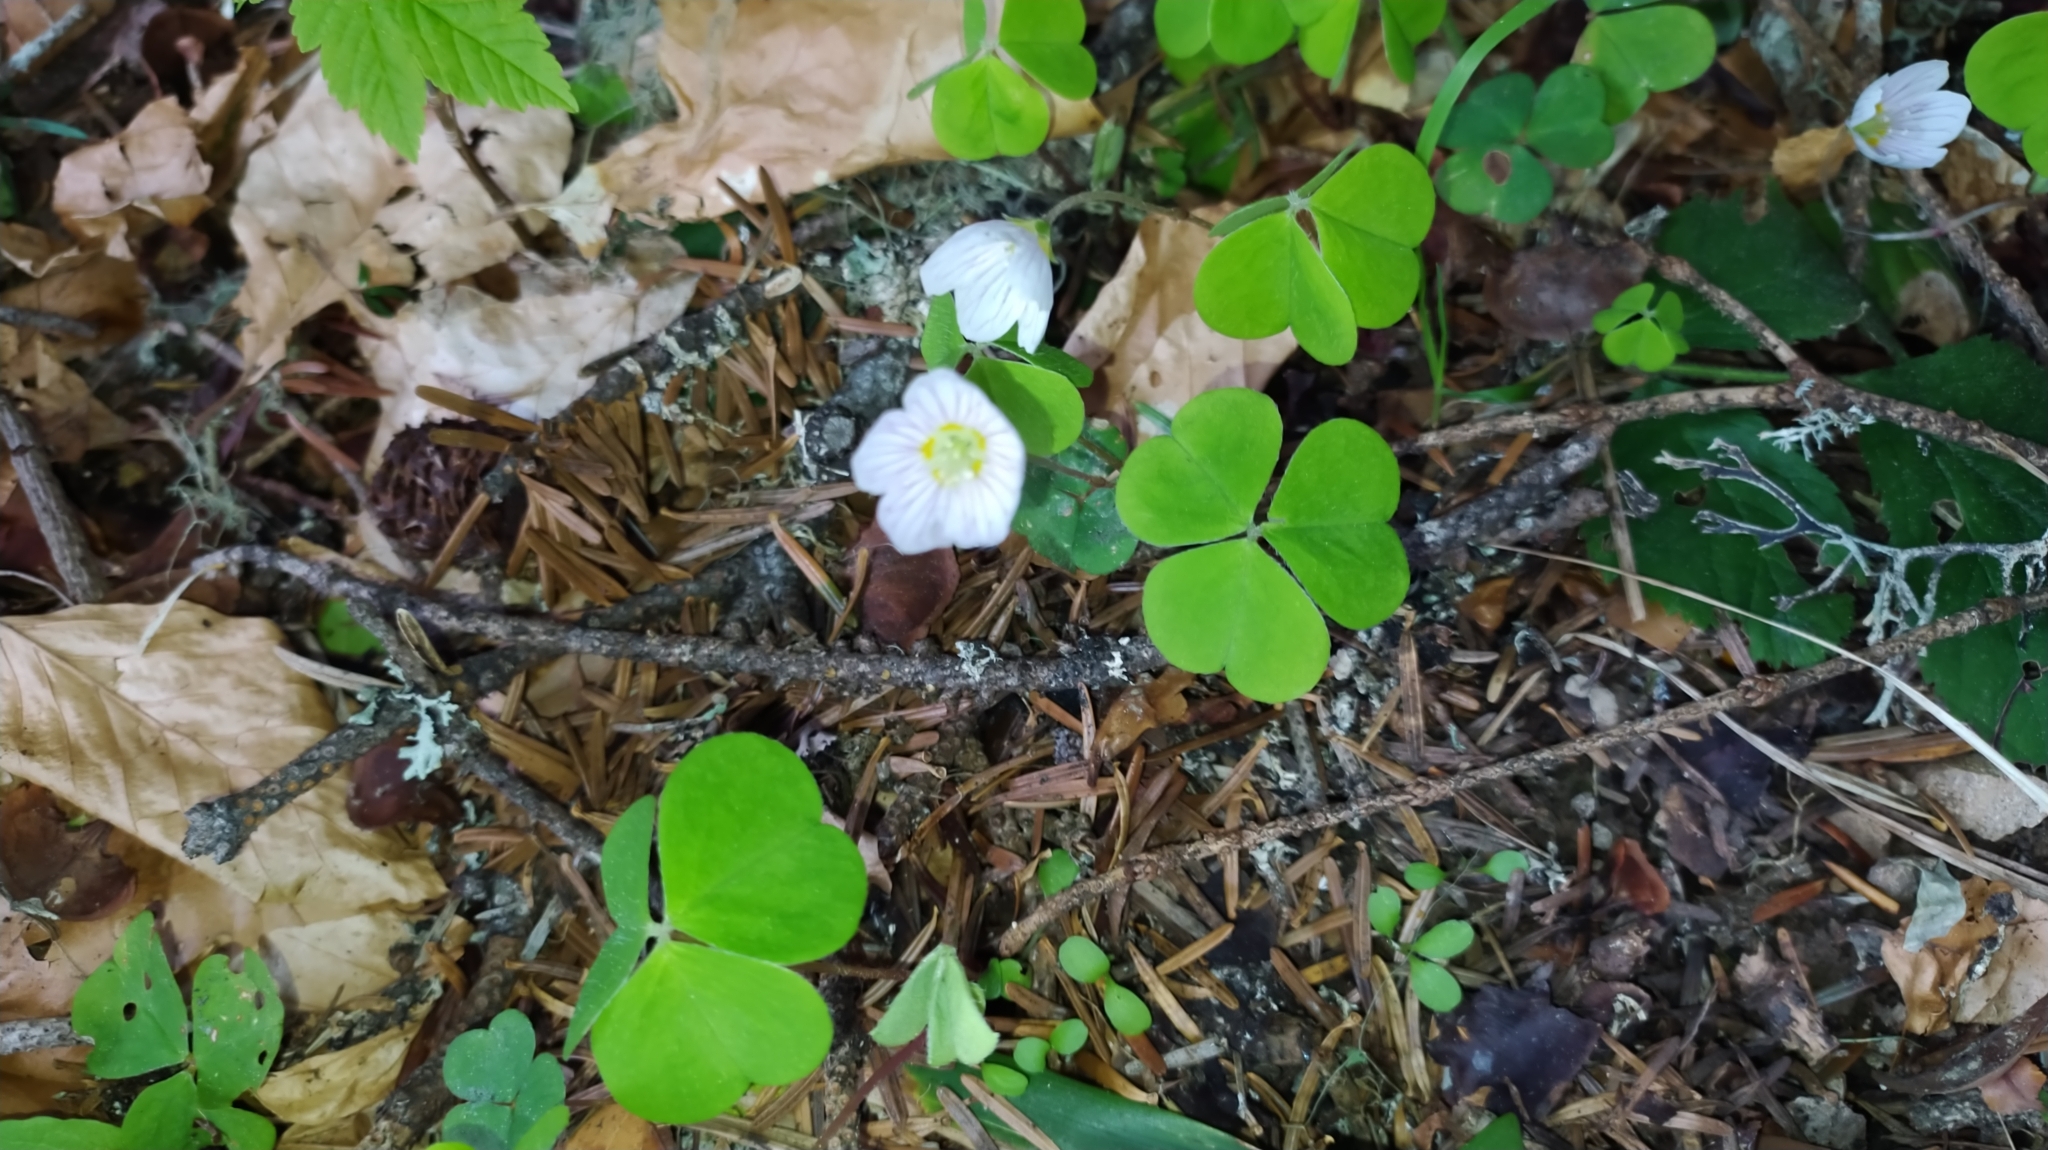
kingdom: Plantae
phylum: Tracheophyta
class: Magnoliopsida
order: Oxalidales
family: Oxalidaceae
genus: Oxalis
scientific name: Oxalis acetosella
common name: Wood-sorrel
